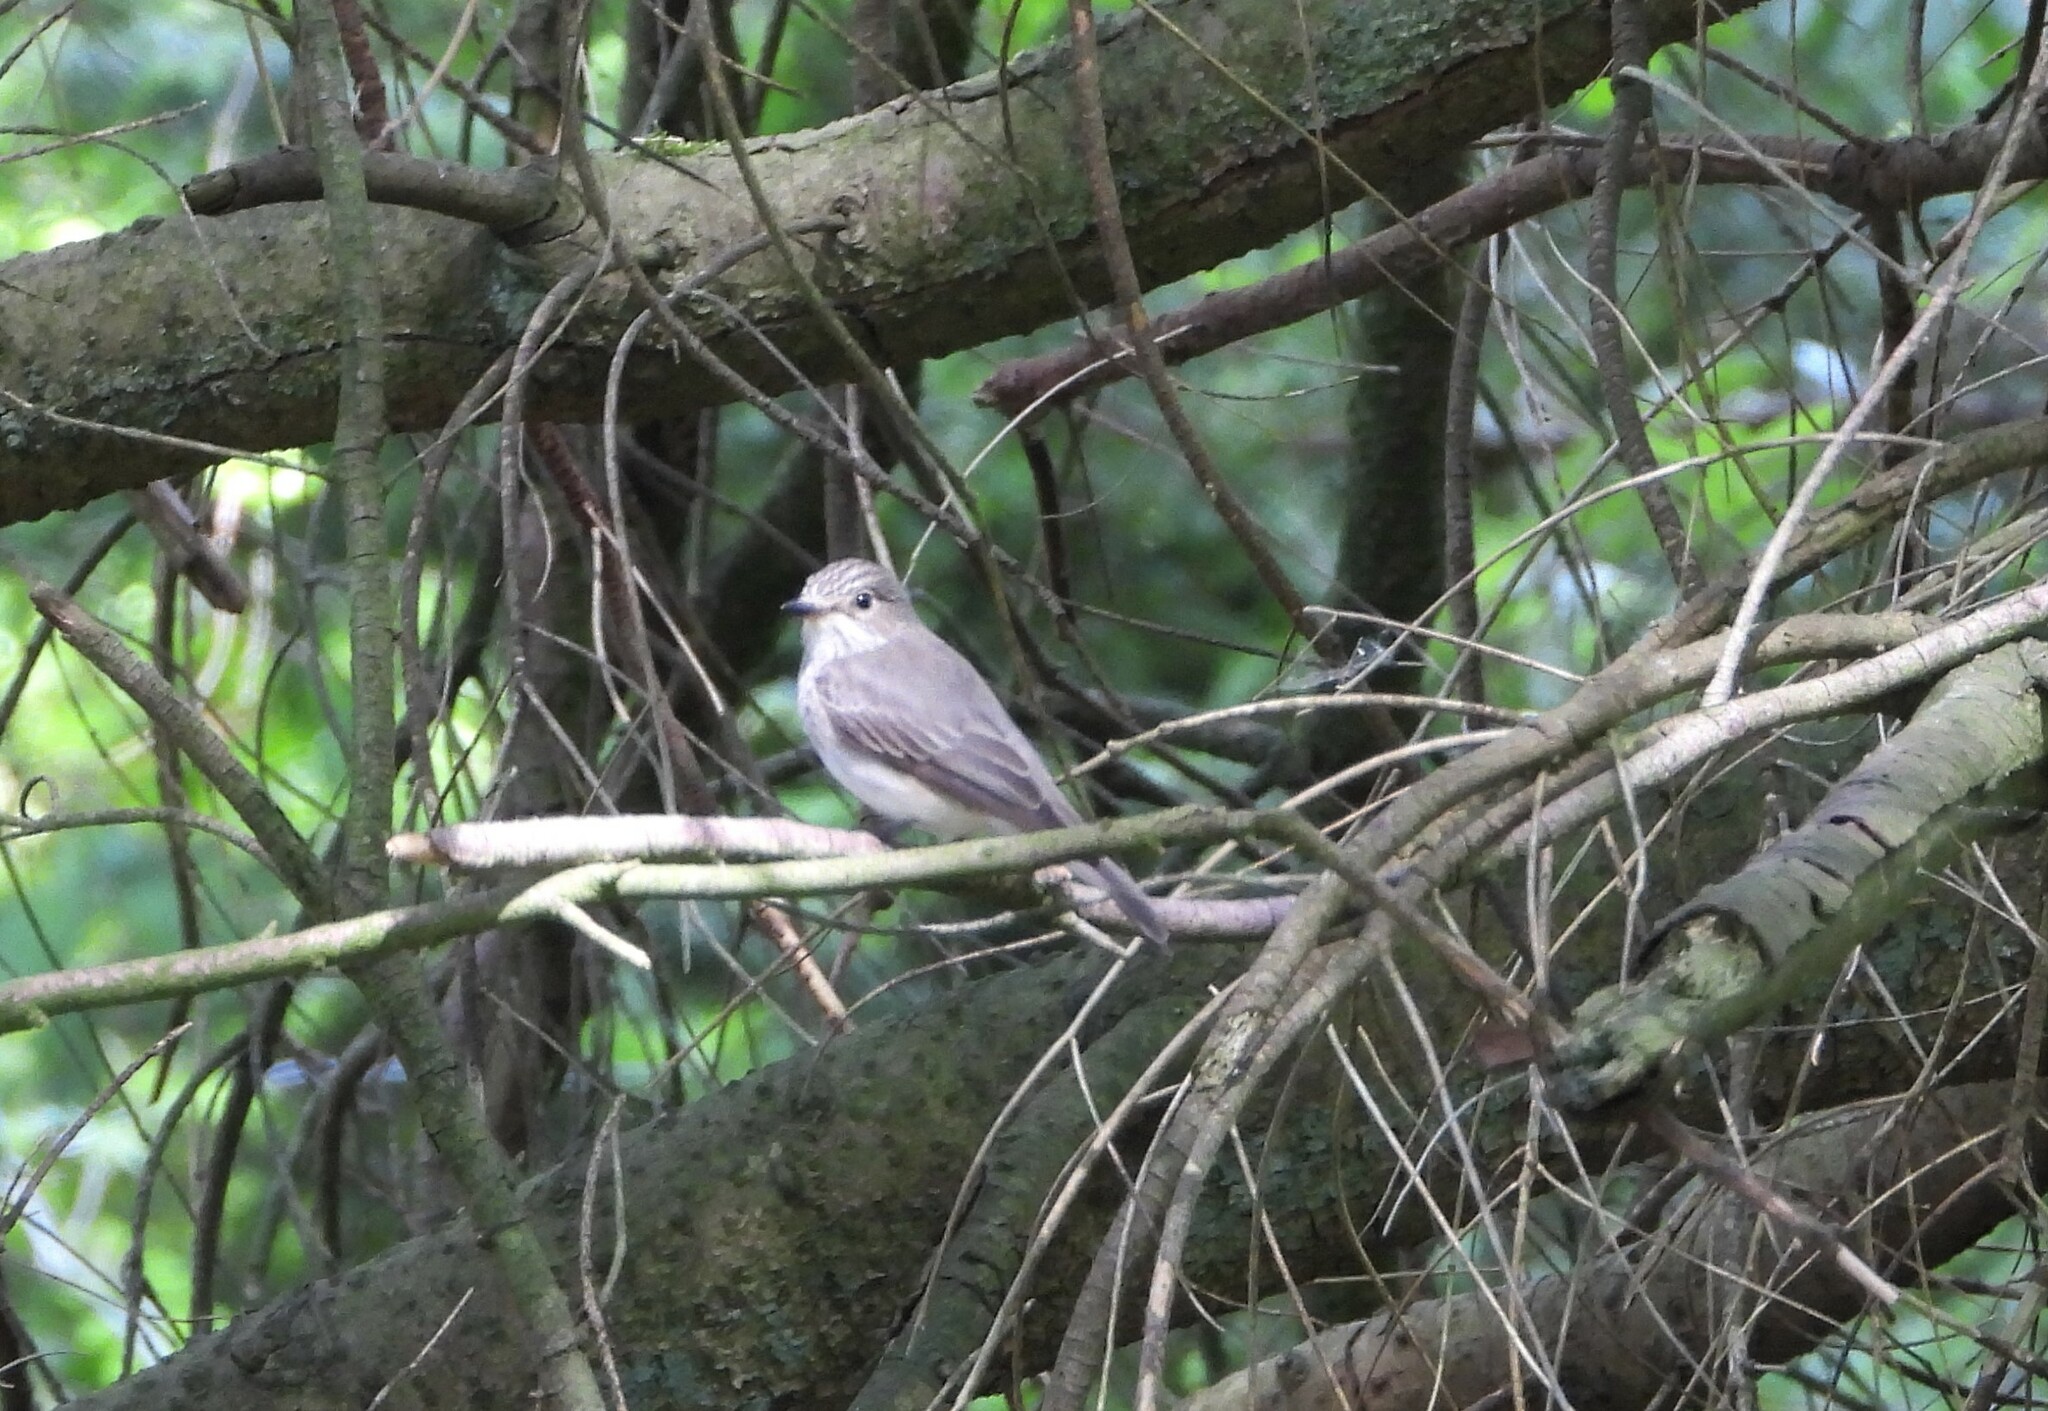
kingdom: Animalia
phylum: Chordata
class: Aves
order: Passeriformes
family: Muscicapidae
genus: Muscicapa
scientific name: Muscicapa striata
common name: Spotted flycatcher
